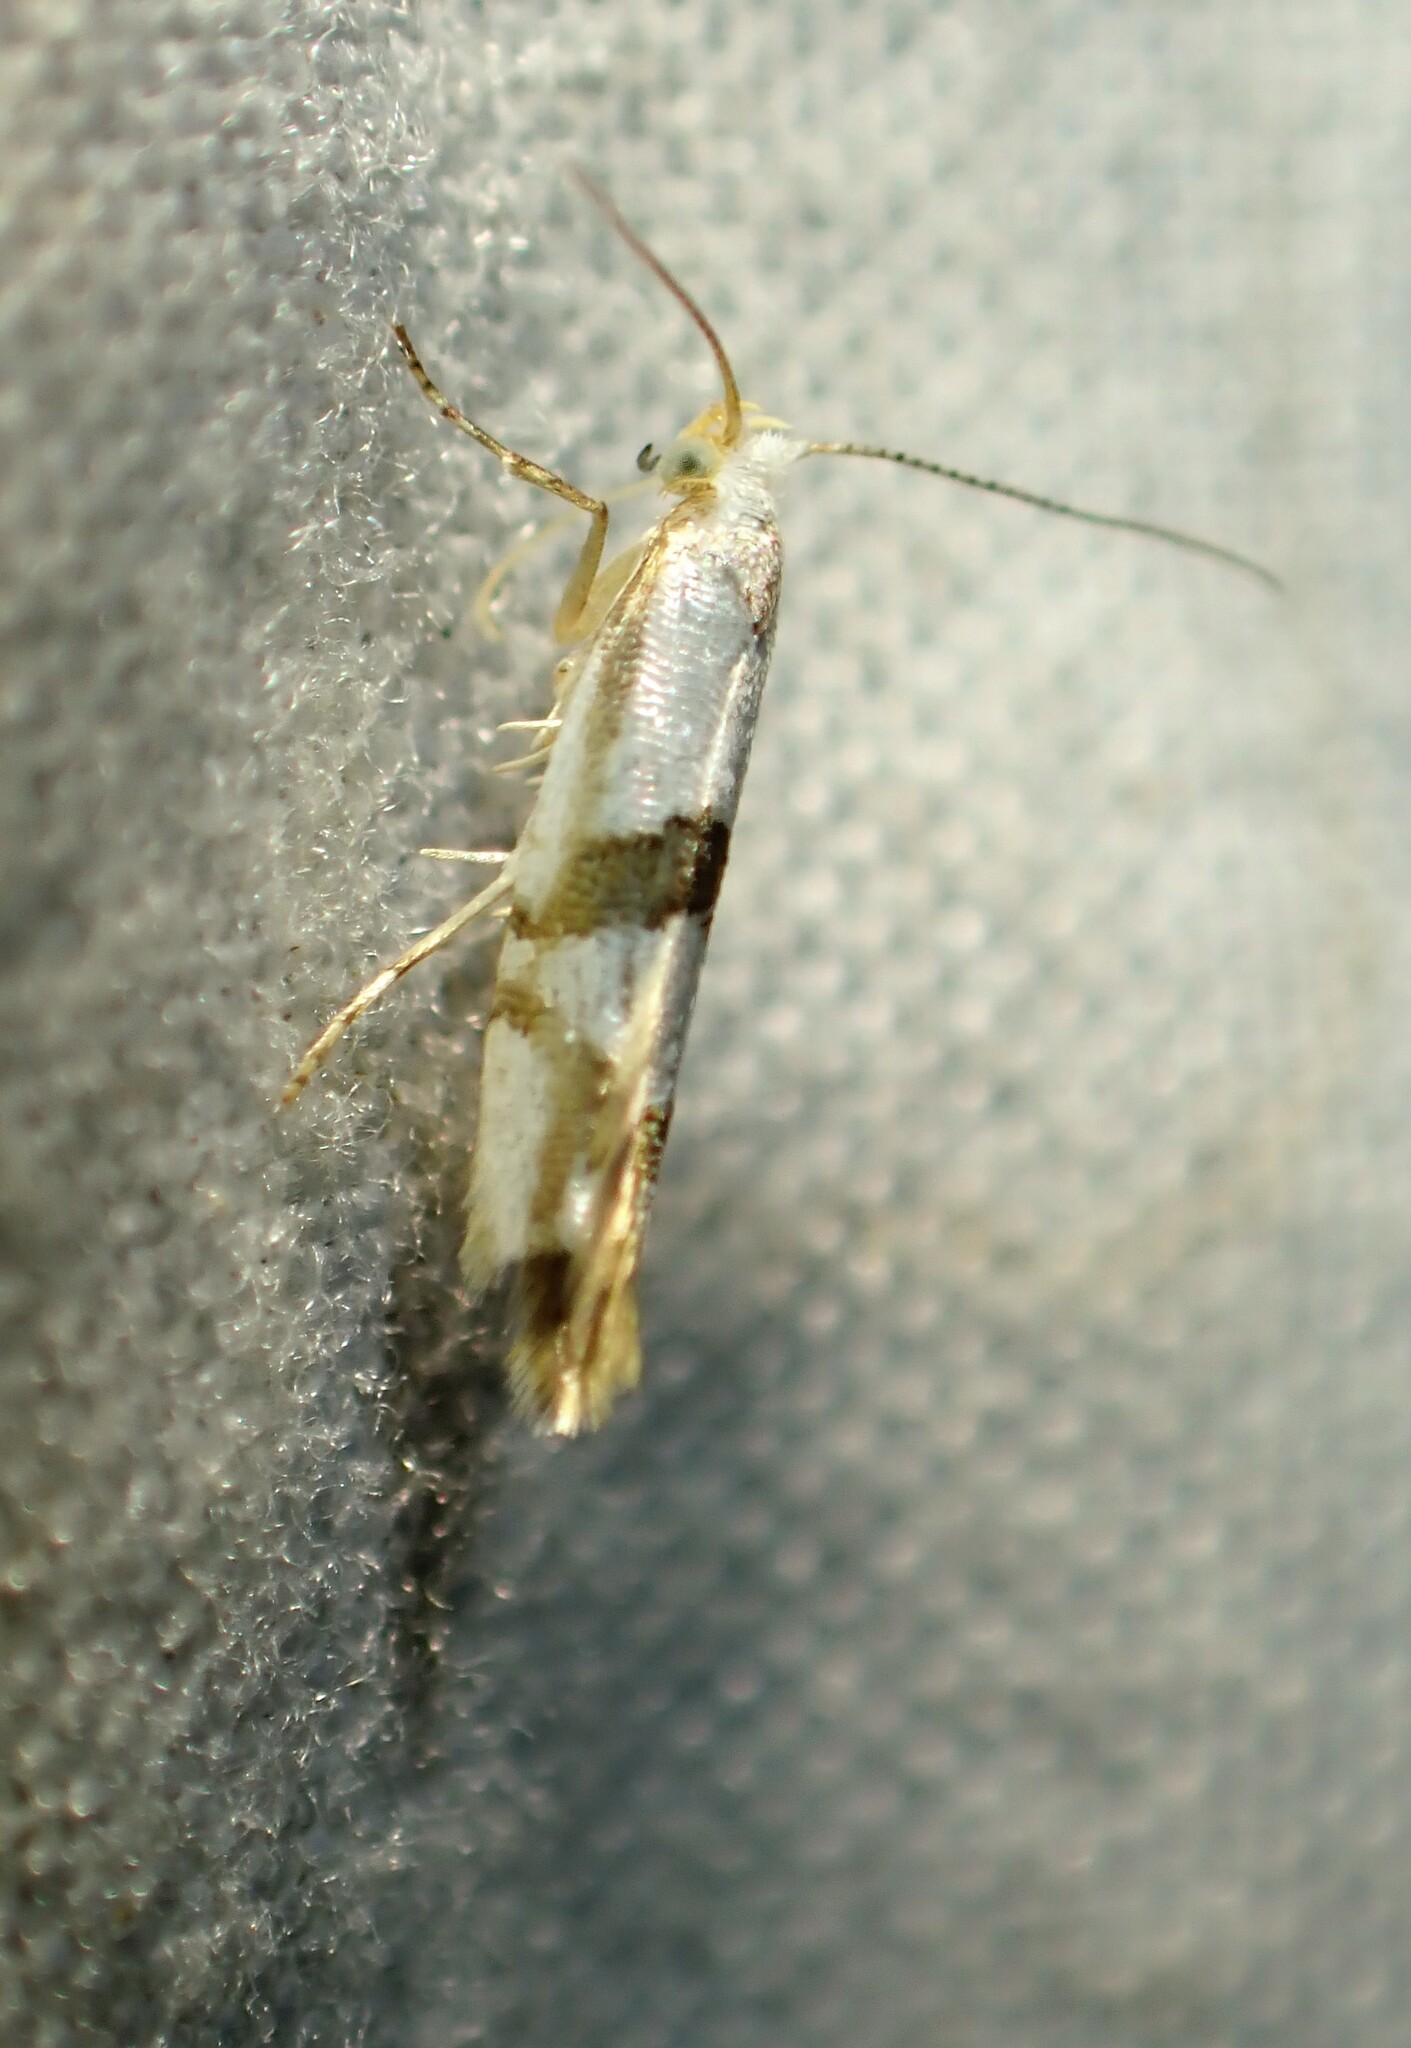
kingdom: Animalia
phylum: Arthropoda
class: Insecta
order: Lepidoptera
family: Argyresthiidae
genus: Argyresthia
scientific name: Argyresthia oreasella
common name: Cherry shoot borer moth
